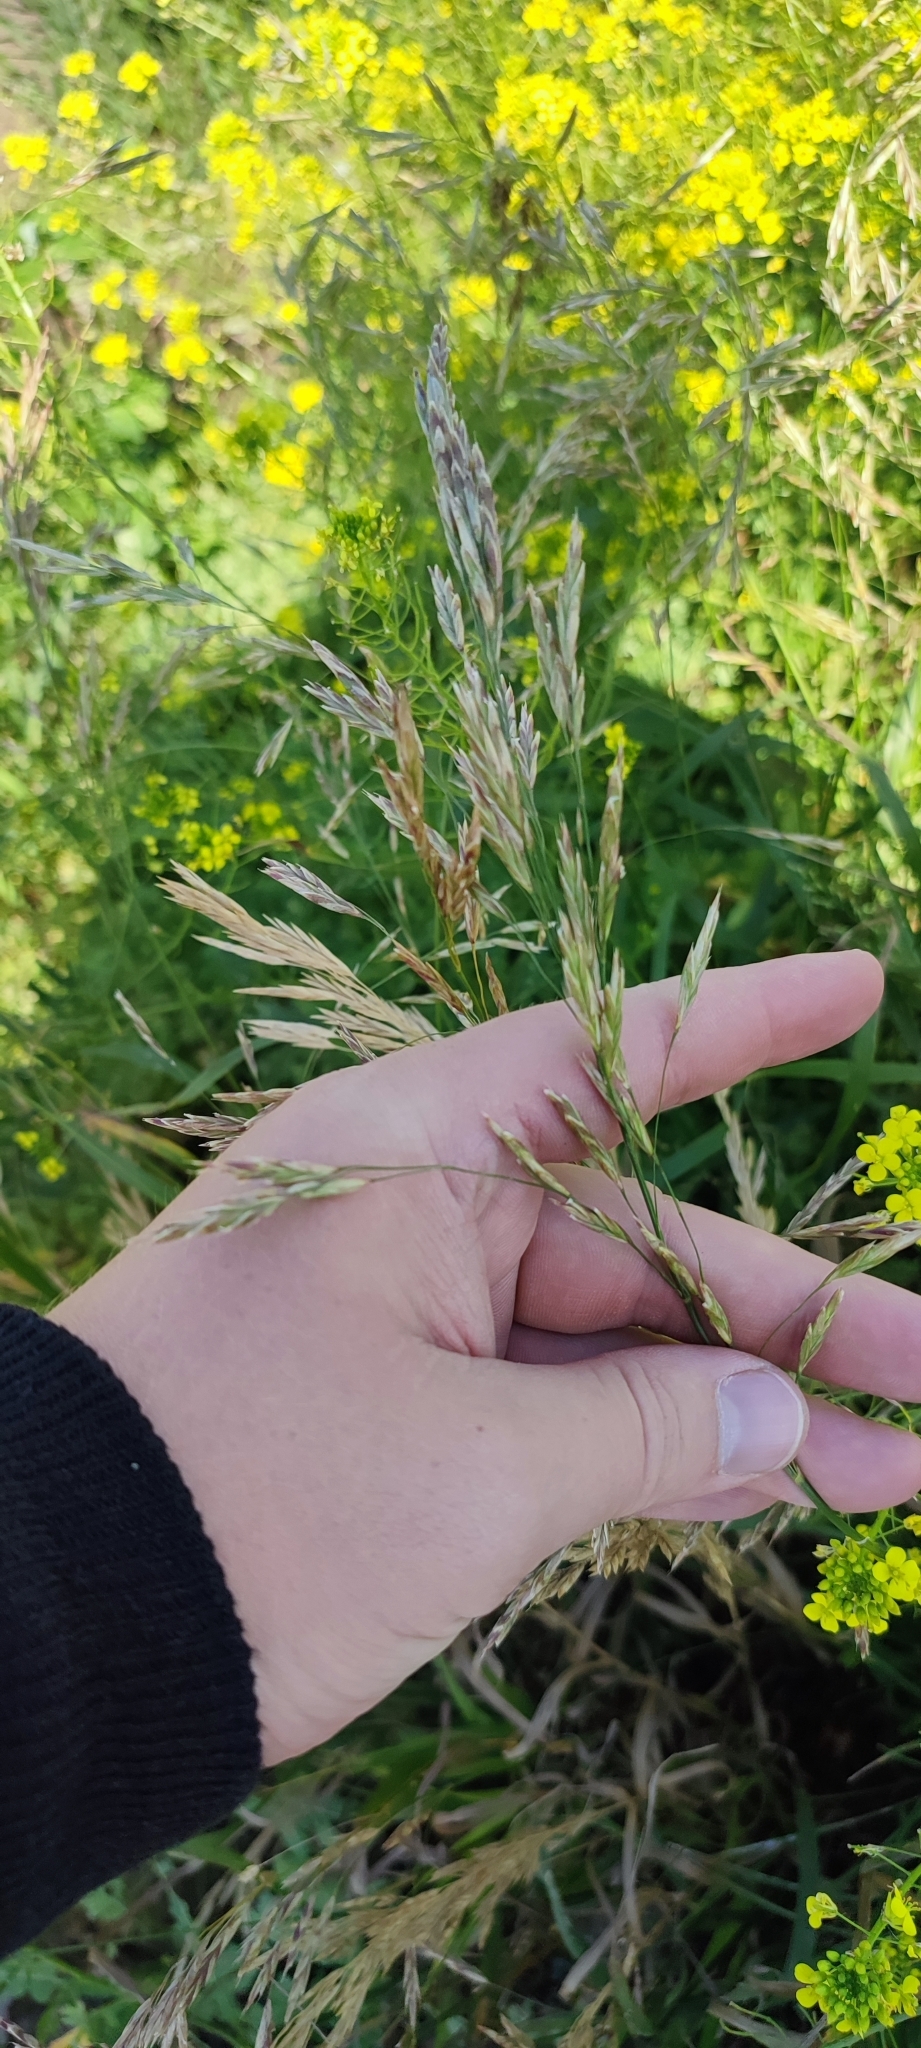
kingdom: Plantae
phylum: Tracheophyta
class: Liliopsida
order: Poales
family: Poaceae
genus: Bromus
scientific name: Bromus inermis
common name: Smooth brome
